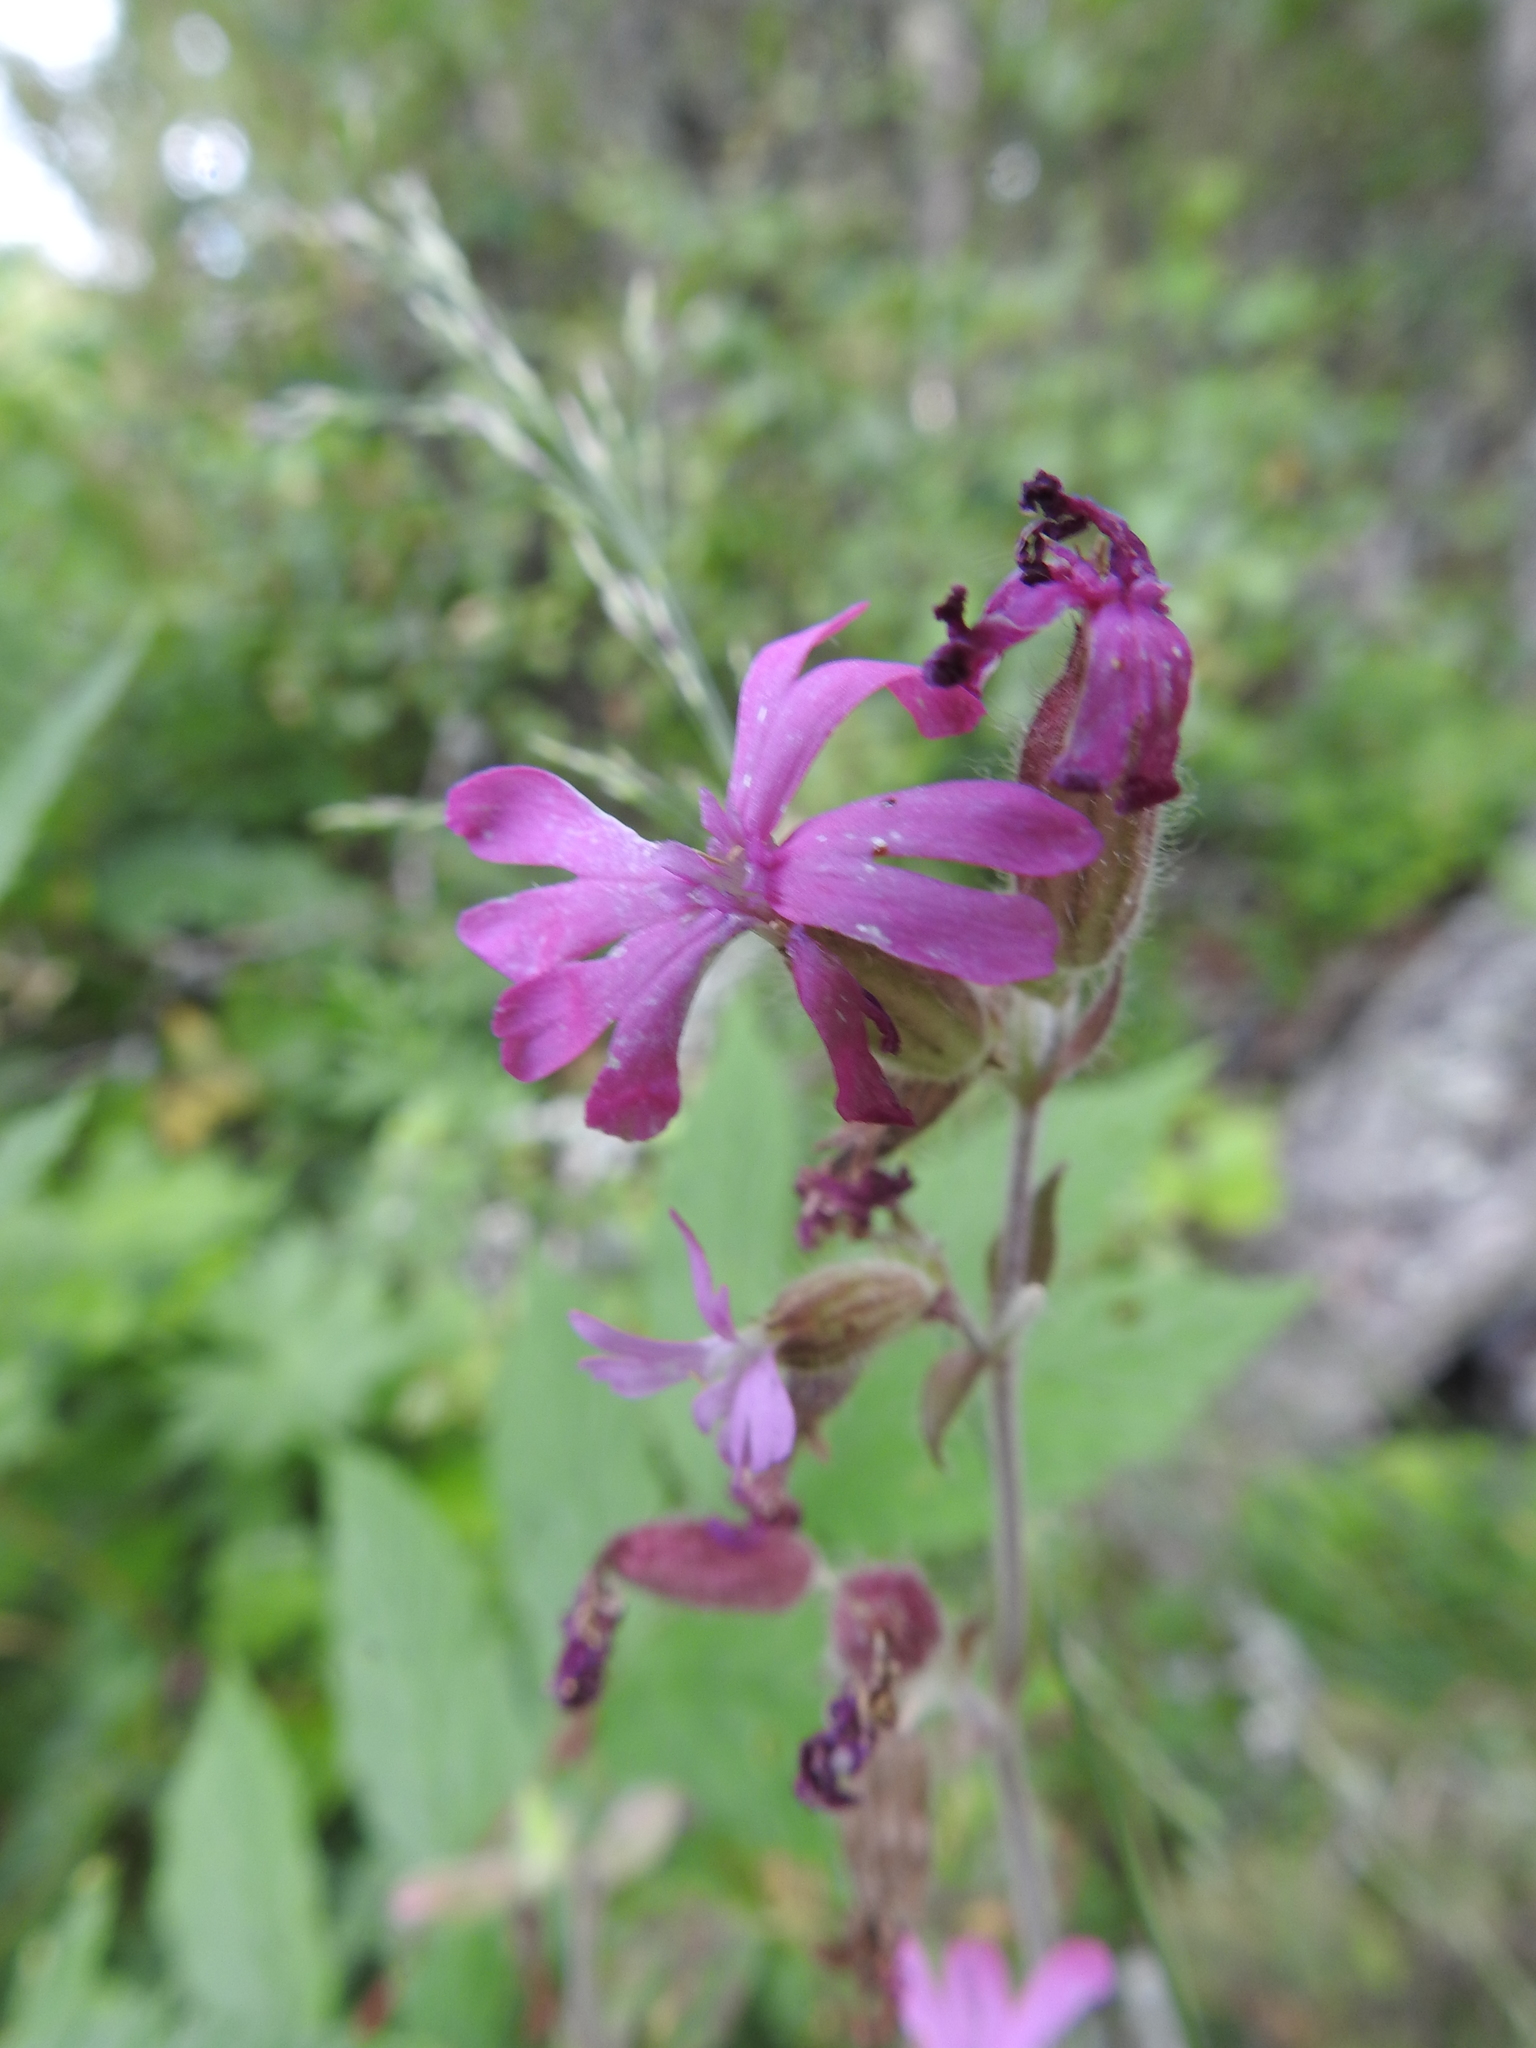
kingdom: Plantae
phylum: Tracheophyta
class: Magnoliopsida
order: Caryophyllales
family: Caryophyllaceae
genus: Silene
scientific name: Silene dioica
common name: Red campion
